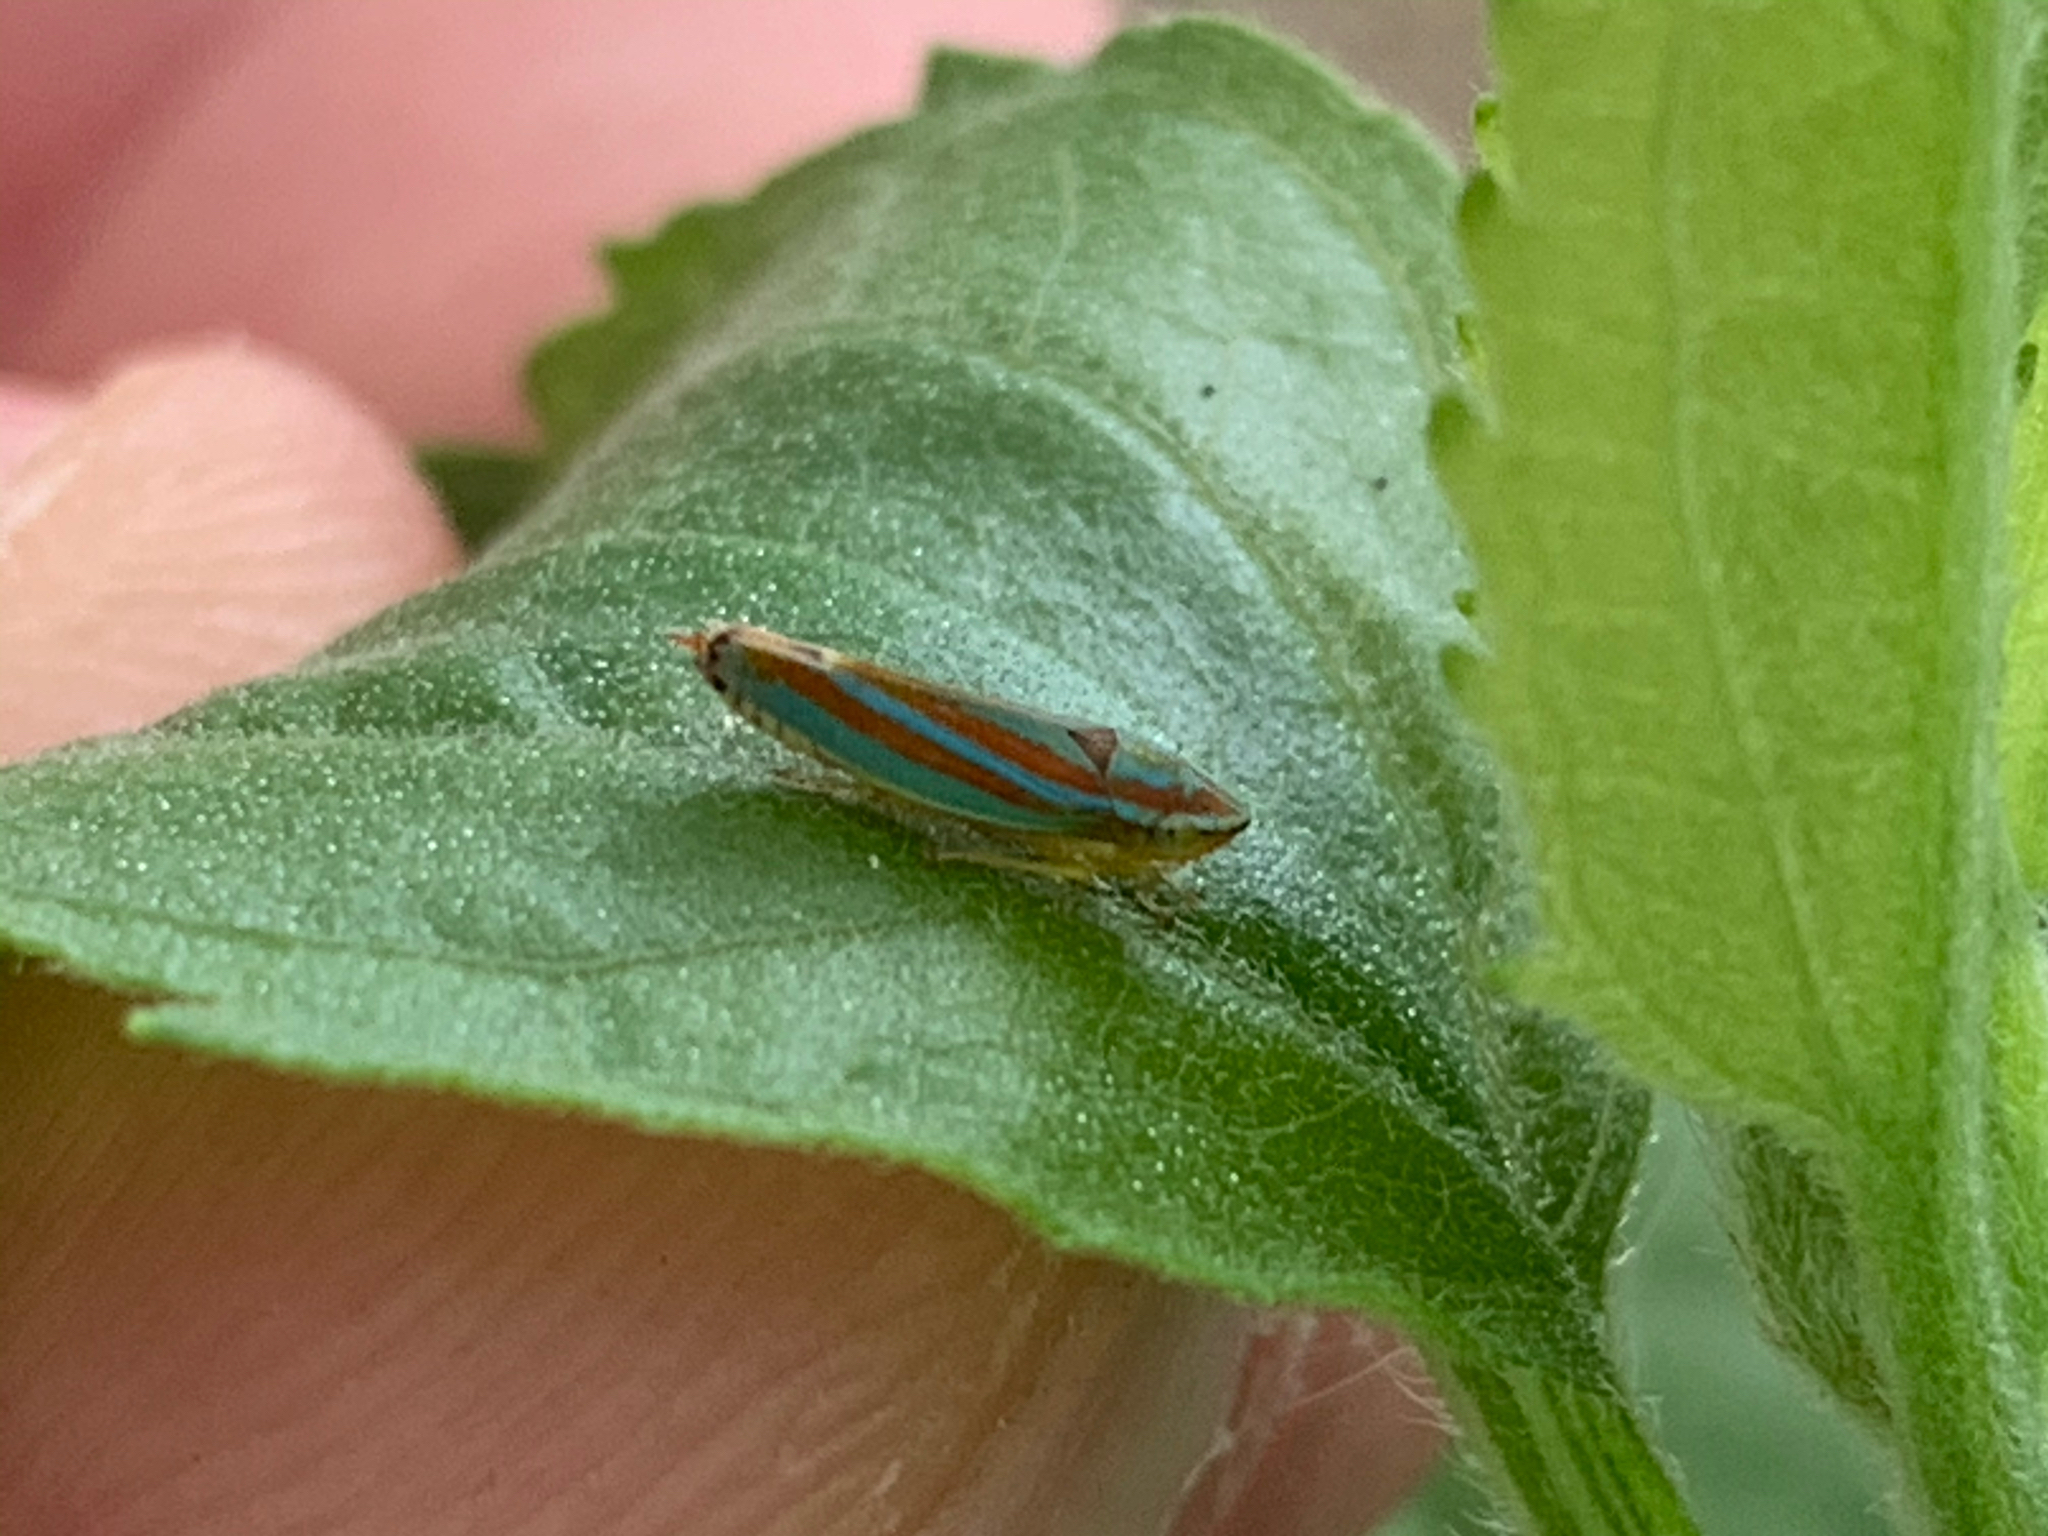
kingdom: Animalia
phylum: Arthropoda
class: Insecta
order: Hemiptera
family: Cicadellidae
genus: Graphocephala
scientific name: Graphocephala versuta
